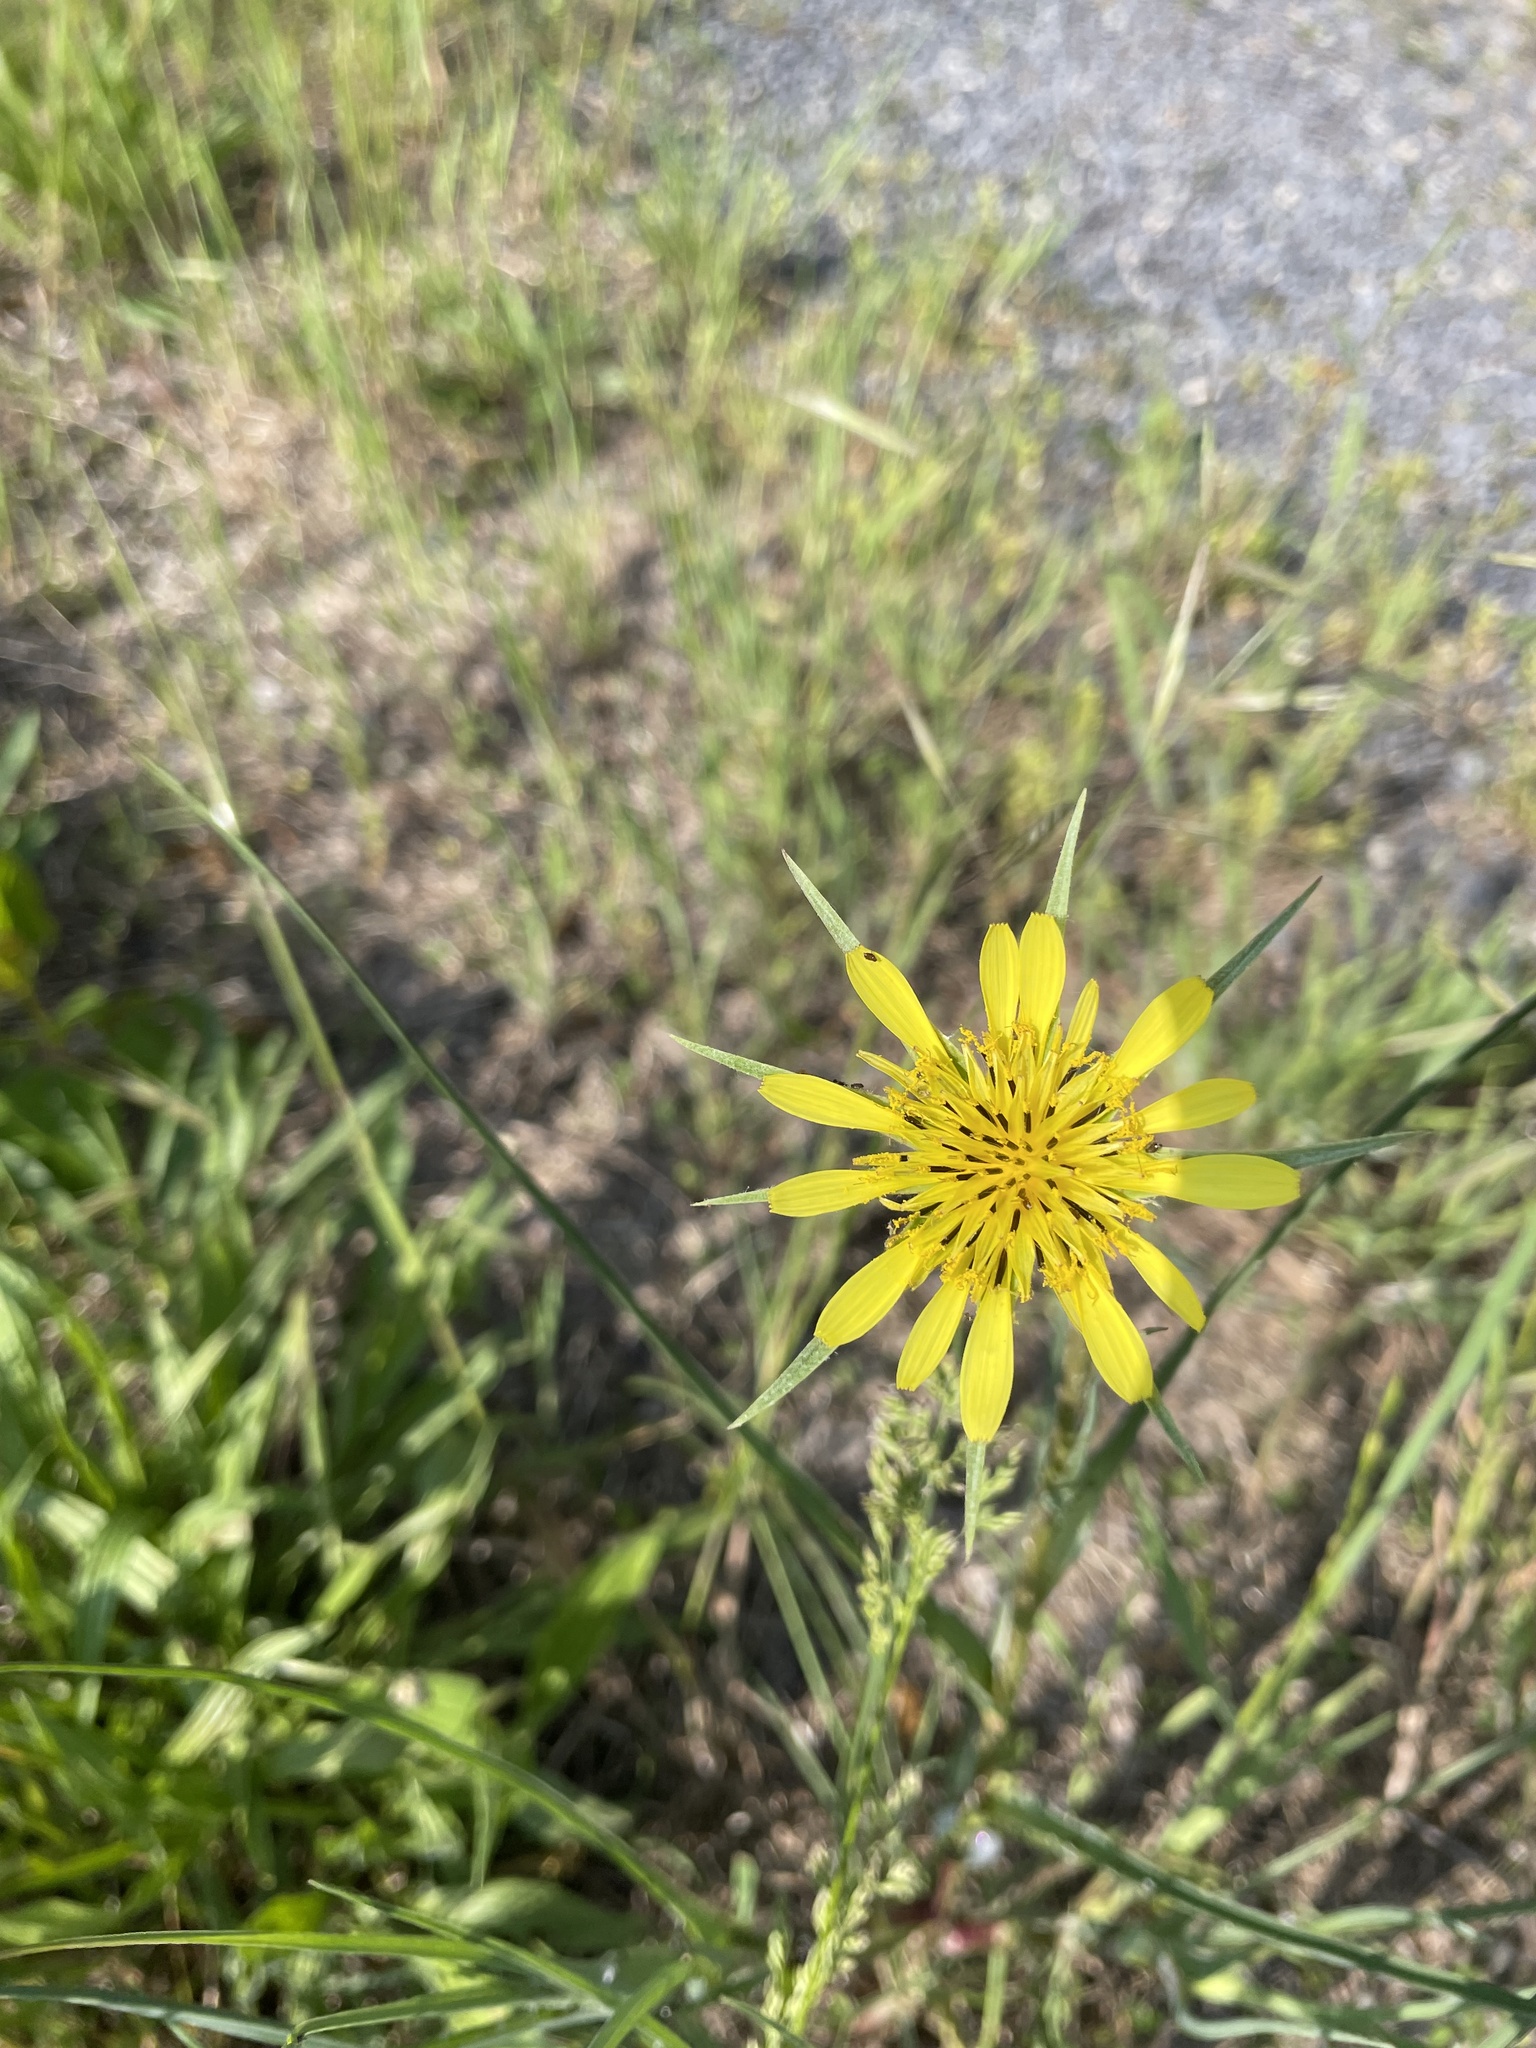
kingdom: Plantae
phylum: Tracheophyta
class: Magnoliopsida
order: Asterales
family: Asteraceae
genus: Tragopogon
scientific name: Tragopogon dubius
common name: Yellow salsify
